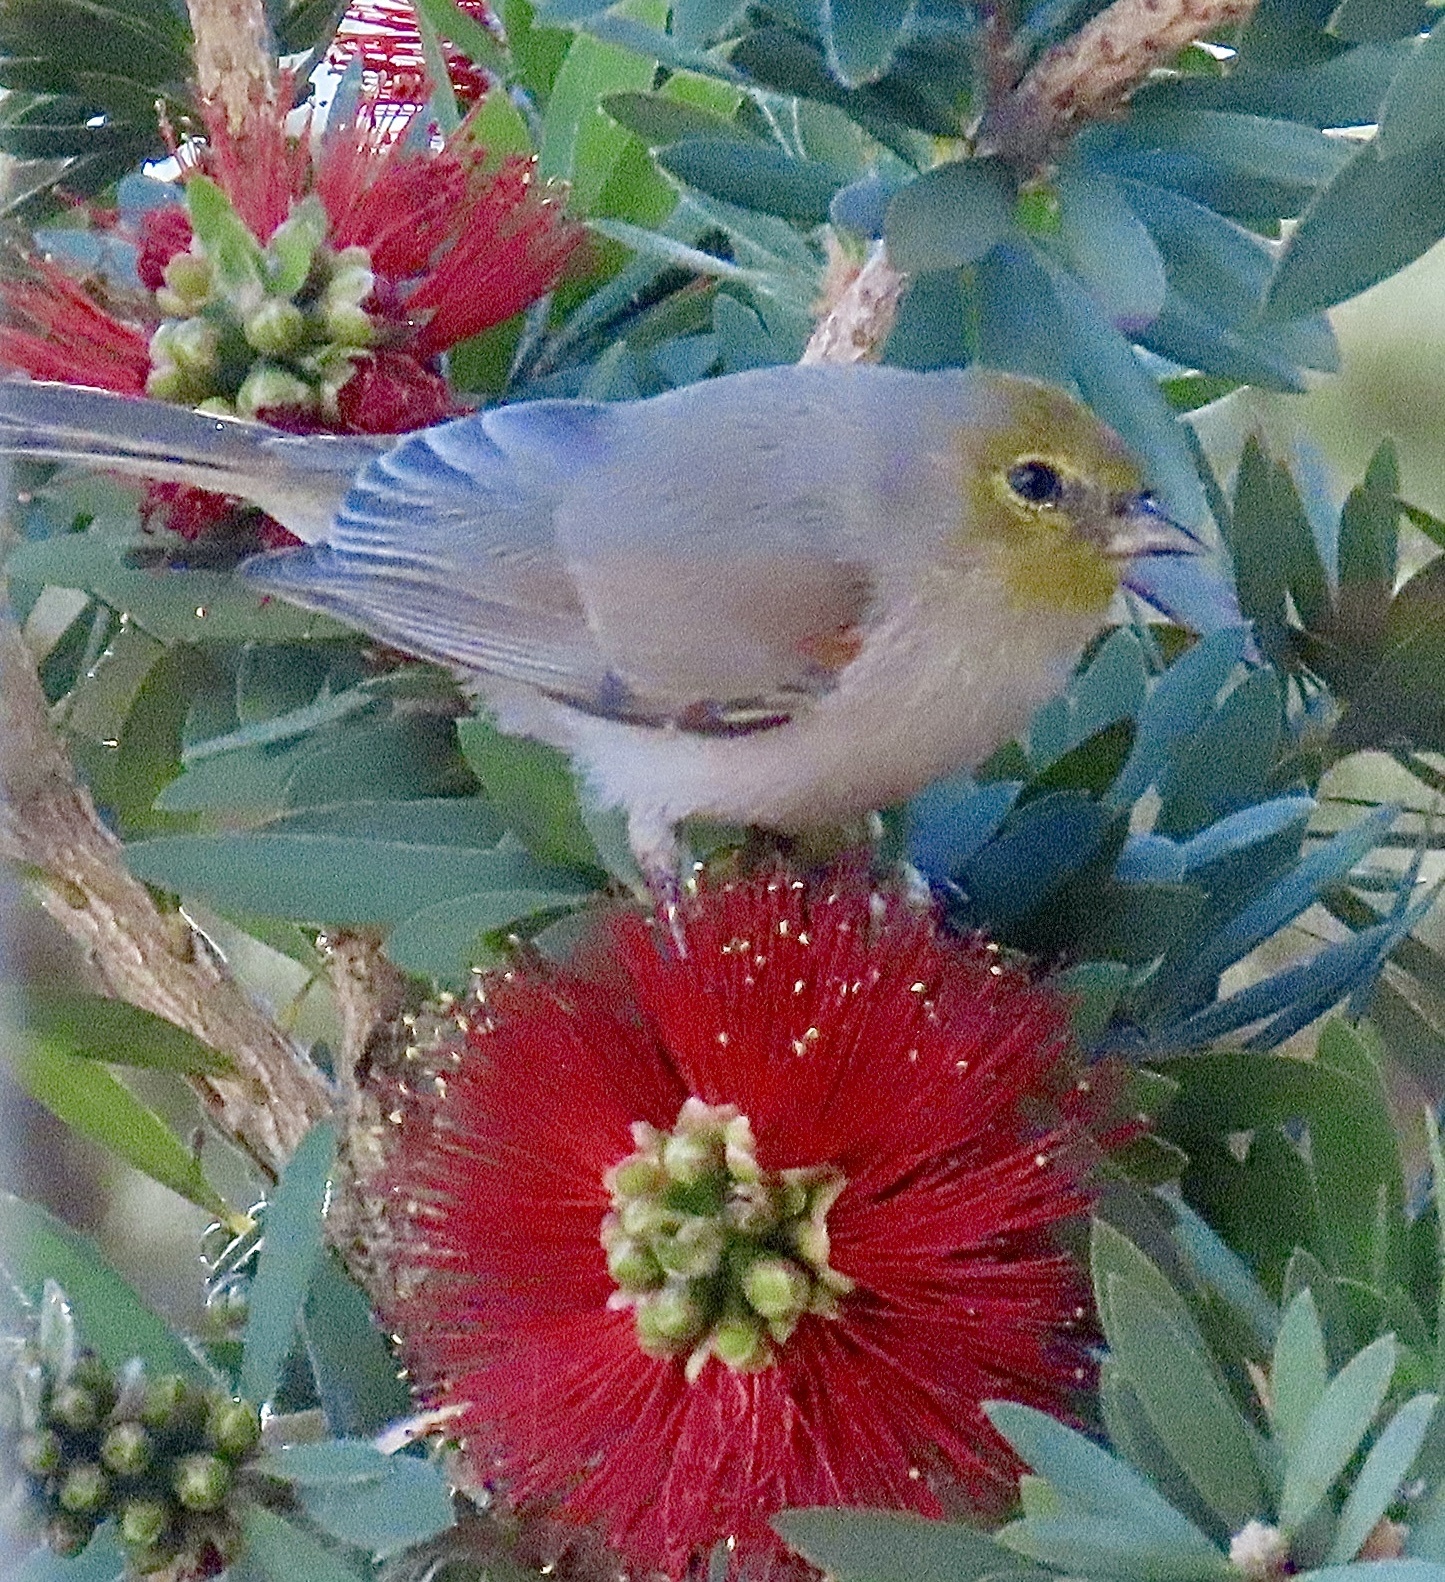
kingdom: Animalia
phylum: Chordata
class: Aves
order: Passeriformes
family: Remizidae
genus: Auriparus
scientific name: Auriparus flaviceps
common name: Verdin
